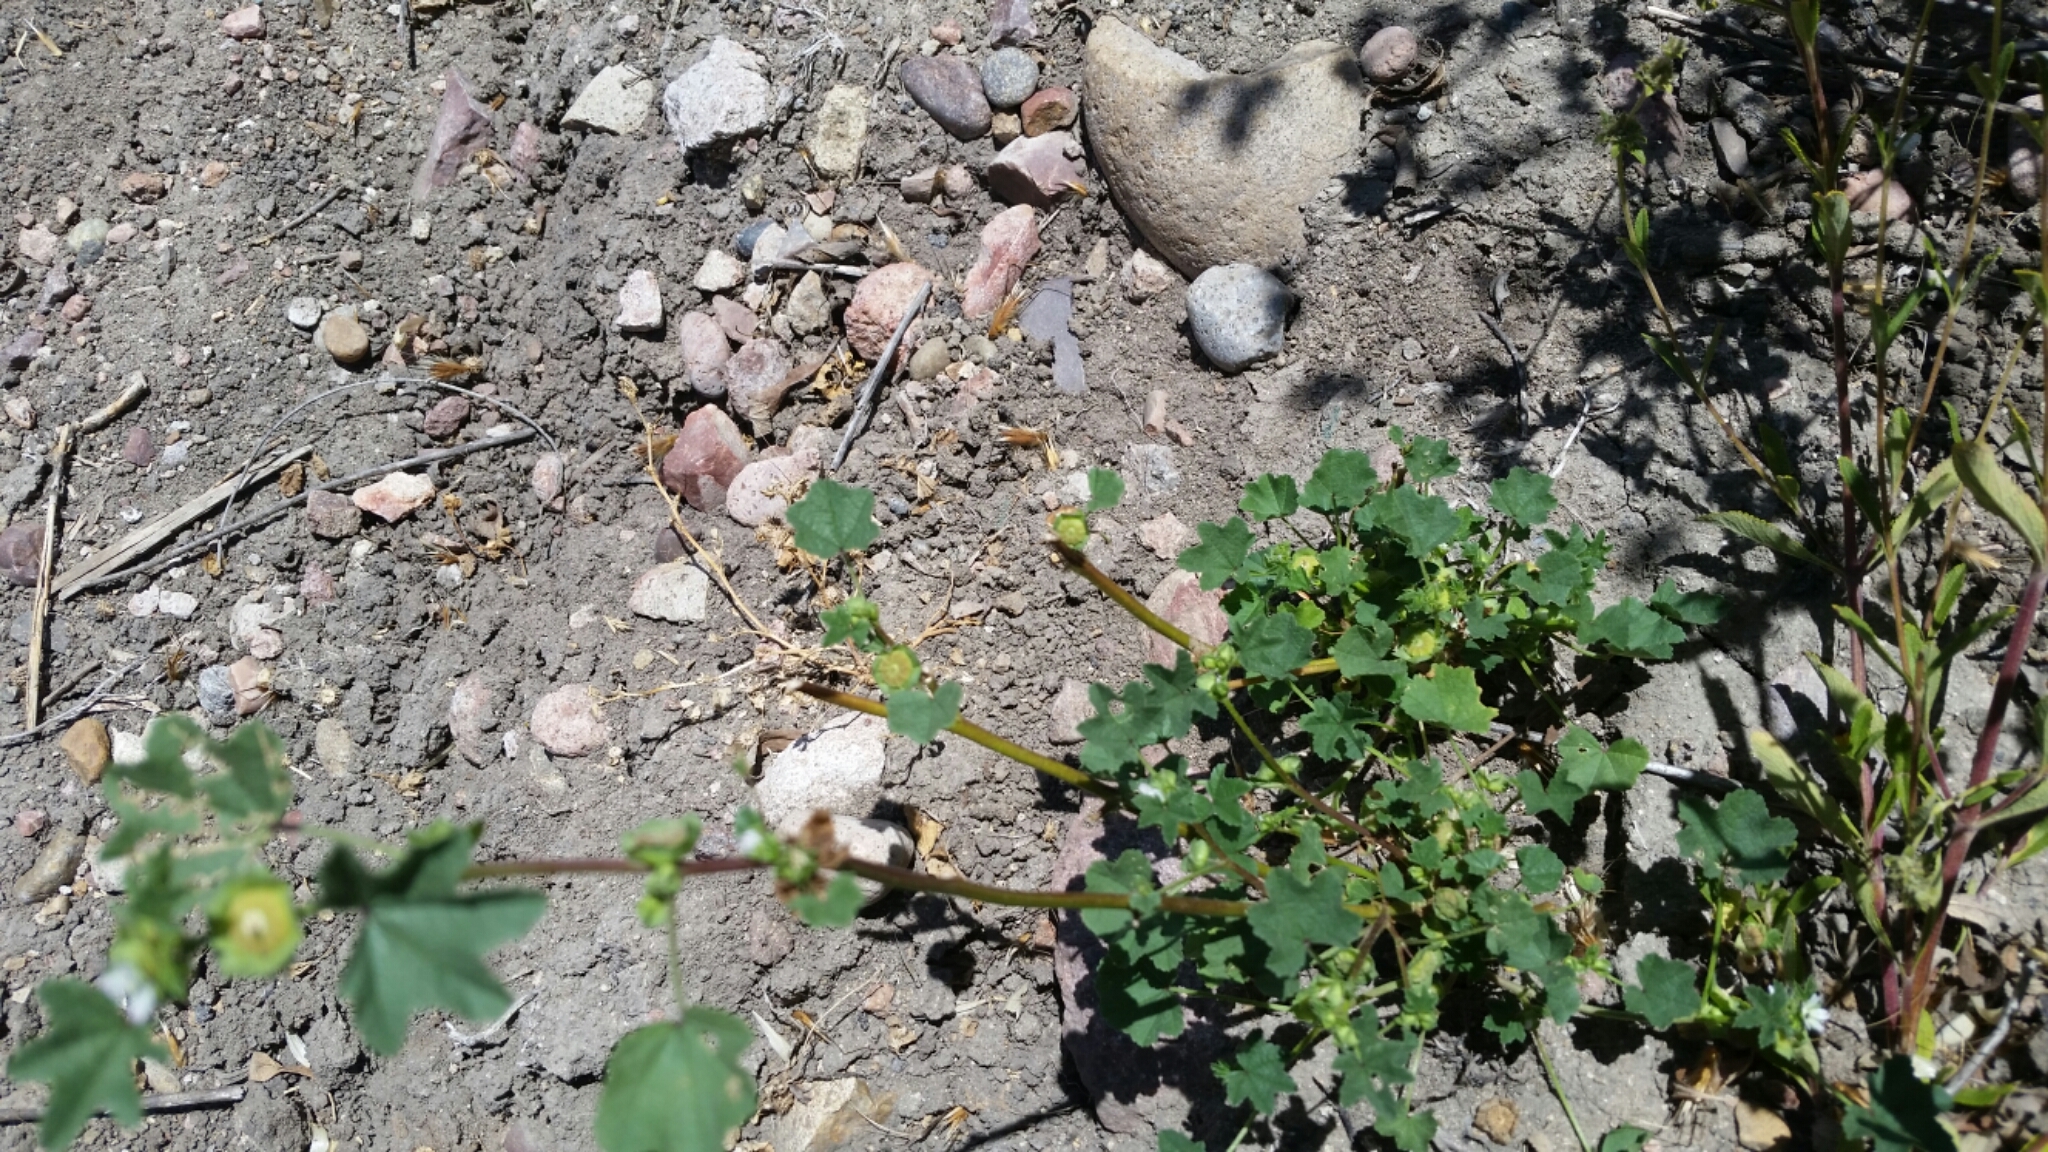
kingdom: Plantae
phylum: Tracheophyta
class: Magnoliopsida
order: Malvales
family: Malvaceae
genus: Malva
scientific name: Malva parviflora
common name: Least mallow
